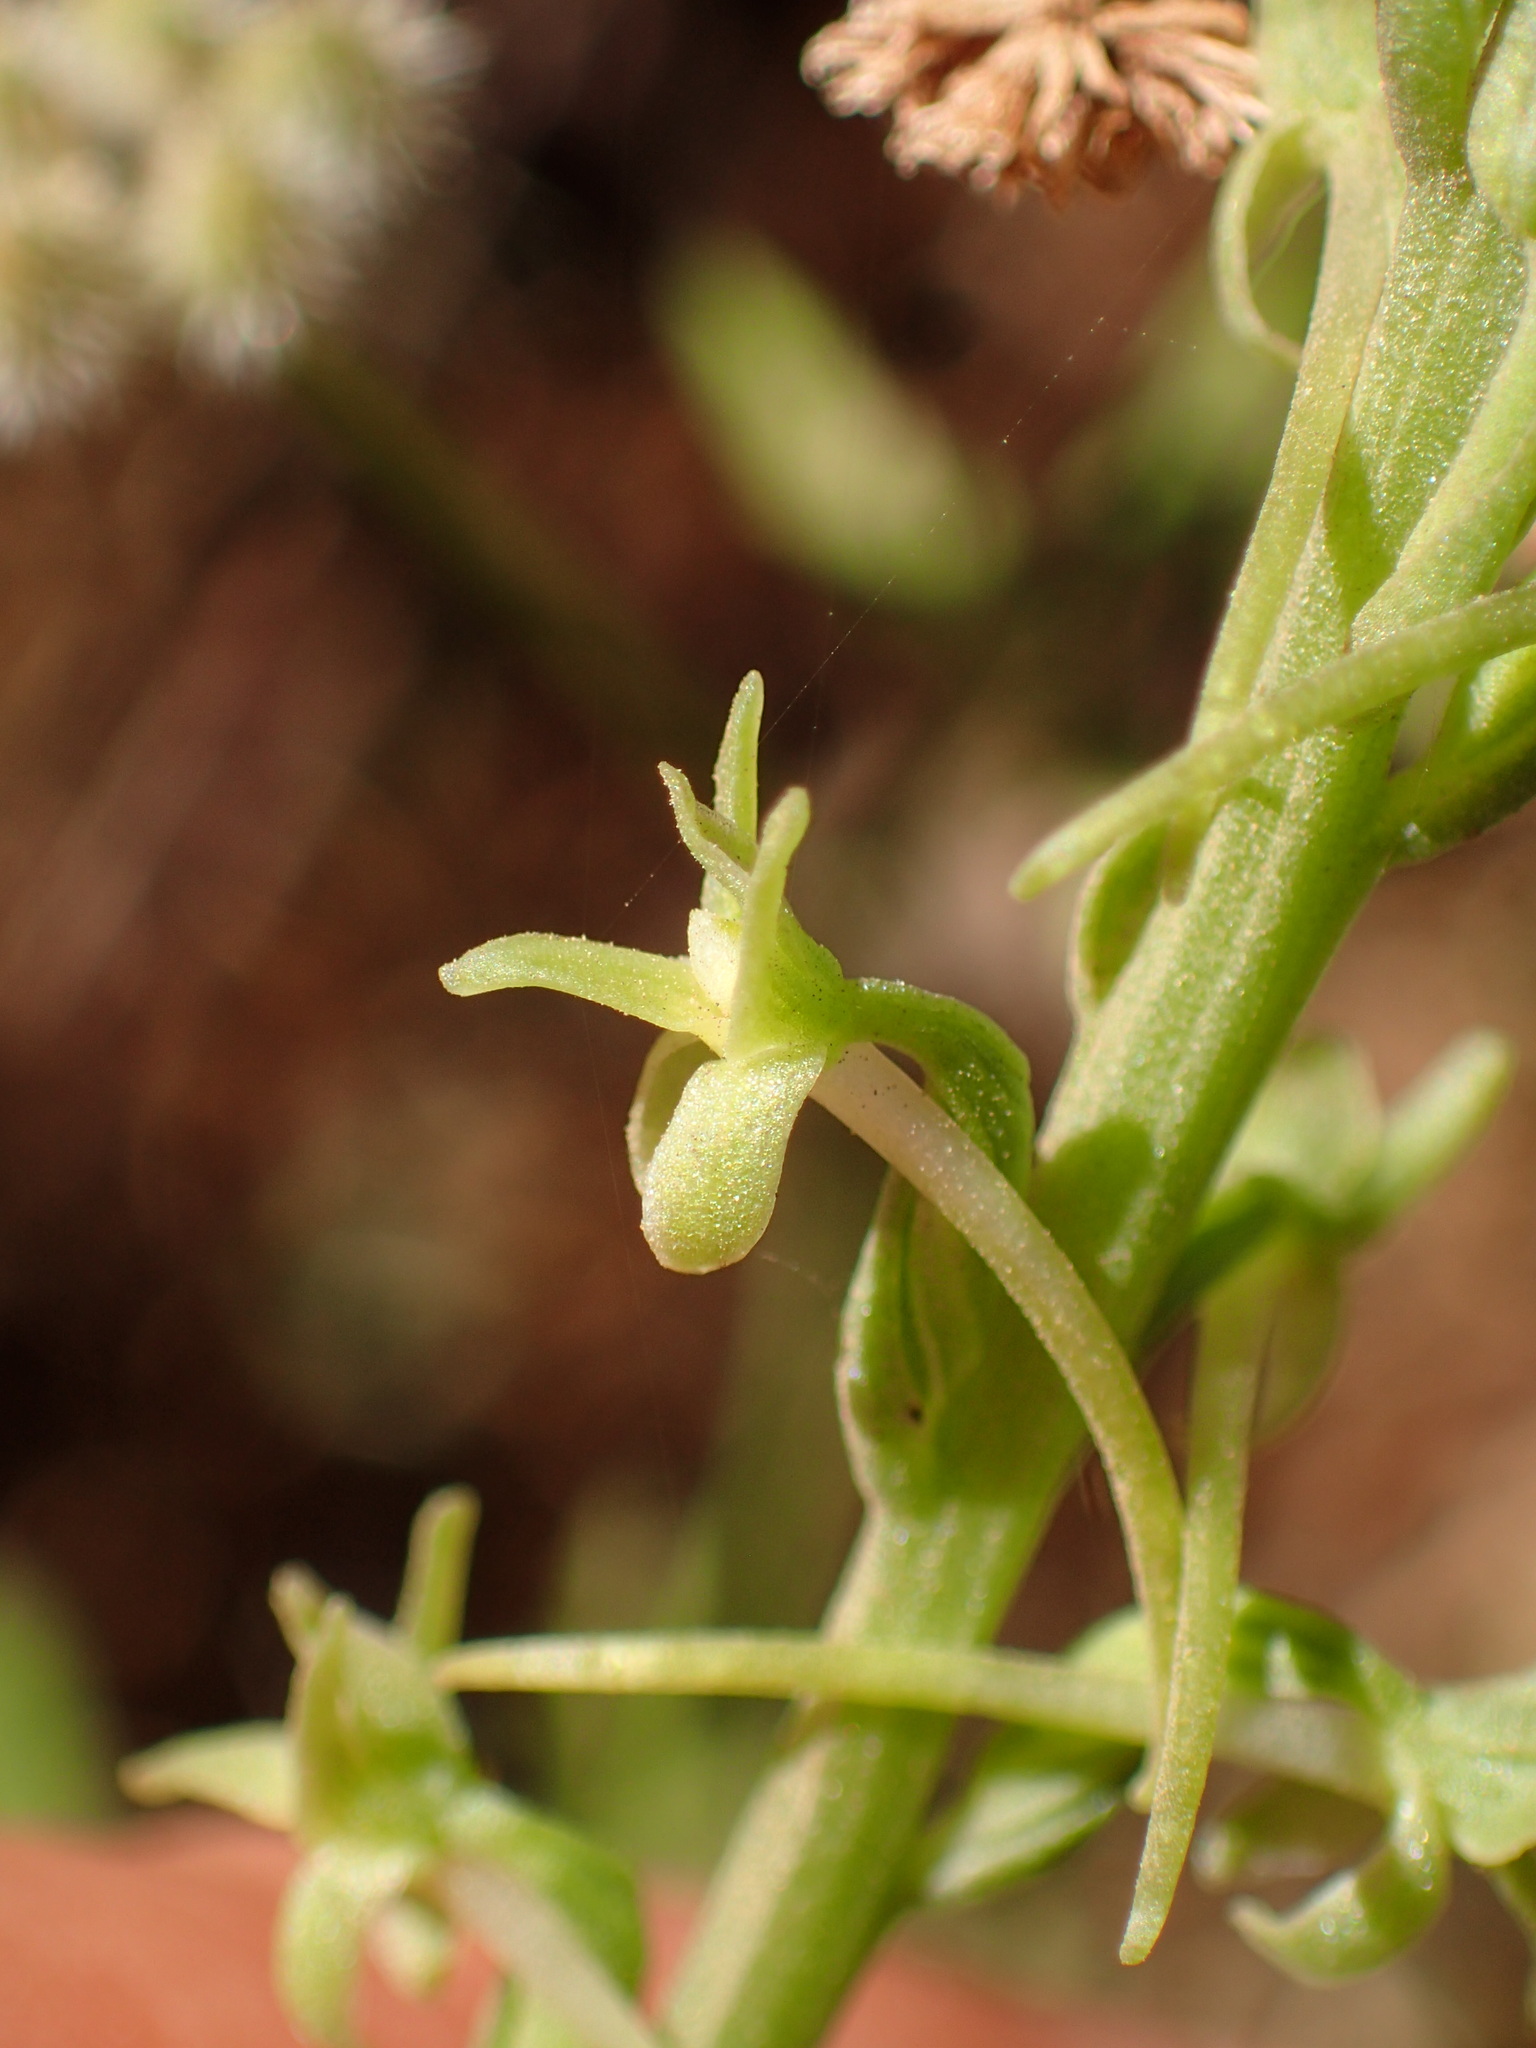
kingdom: Plantae
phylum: Tracheophyta
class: Liliopsida
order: Asparagales
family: Orchidaceae
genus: Platanthera
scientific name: Platanthera elongata
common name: Dense-flowered rein orchid
